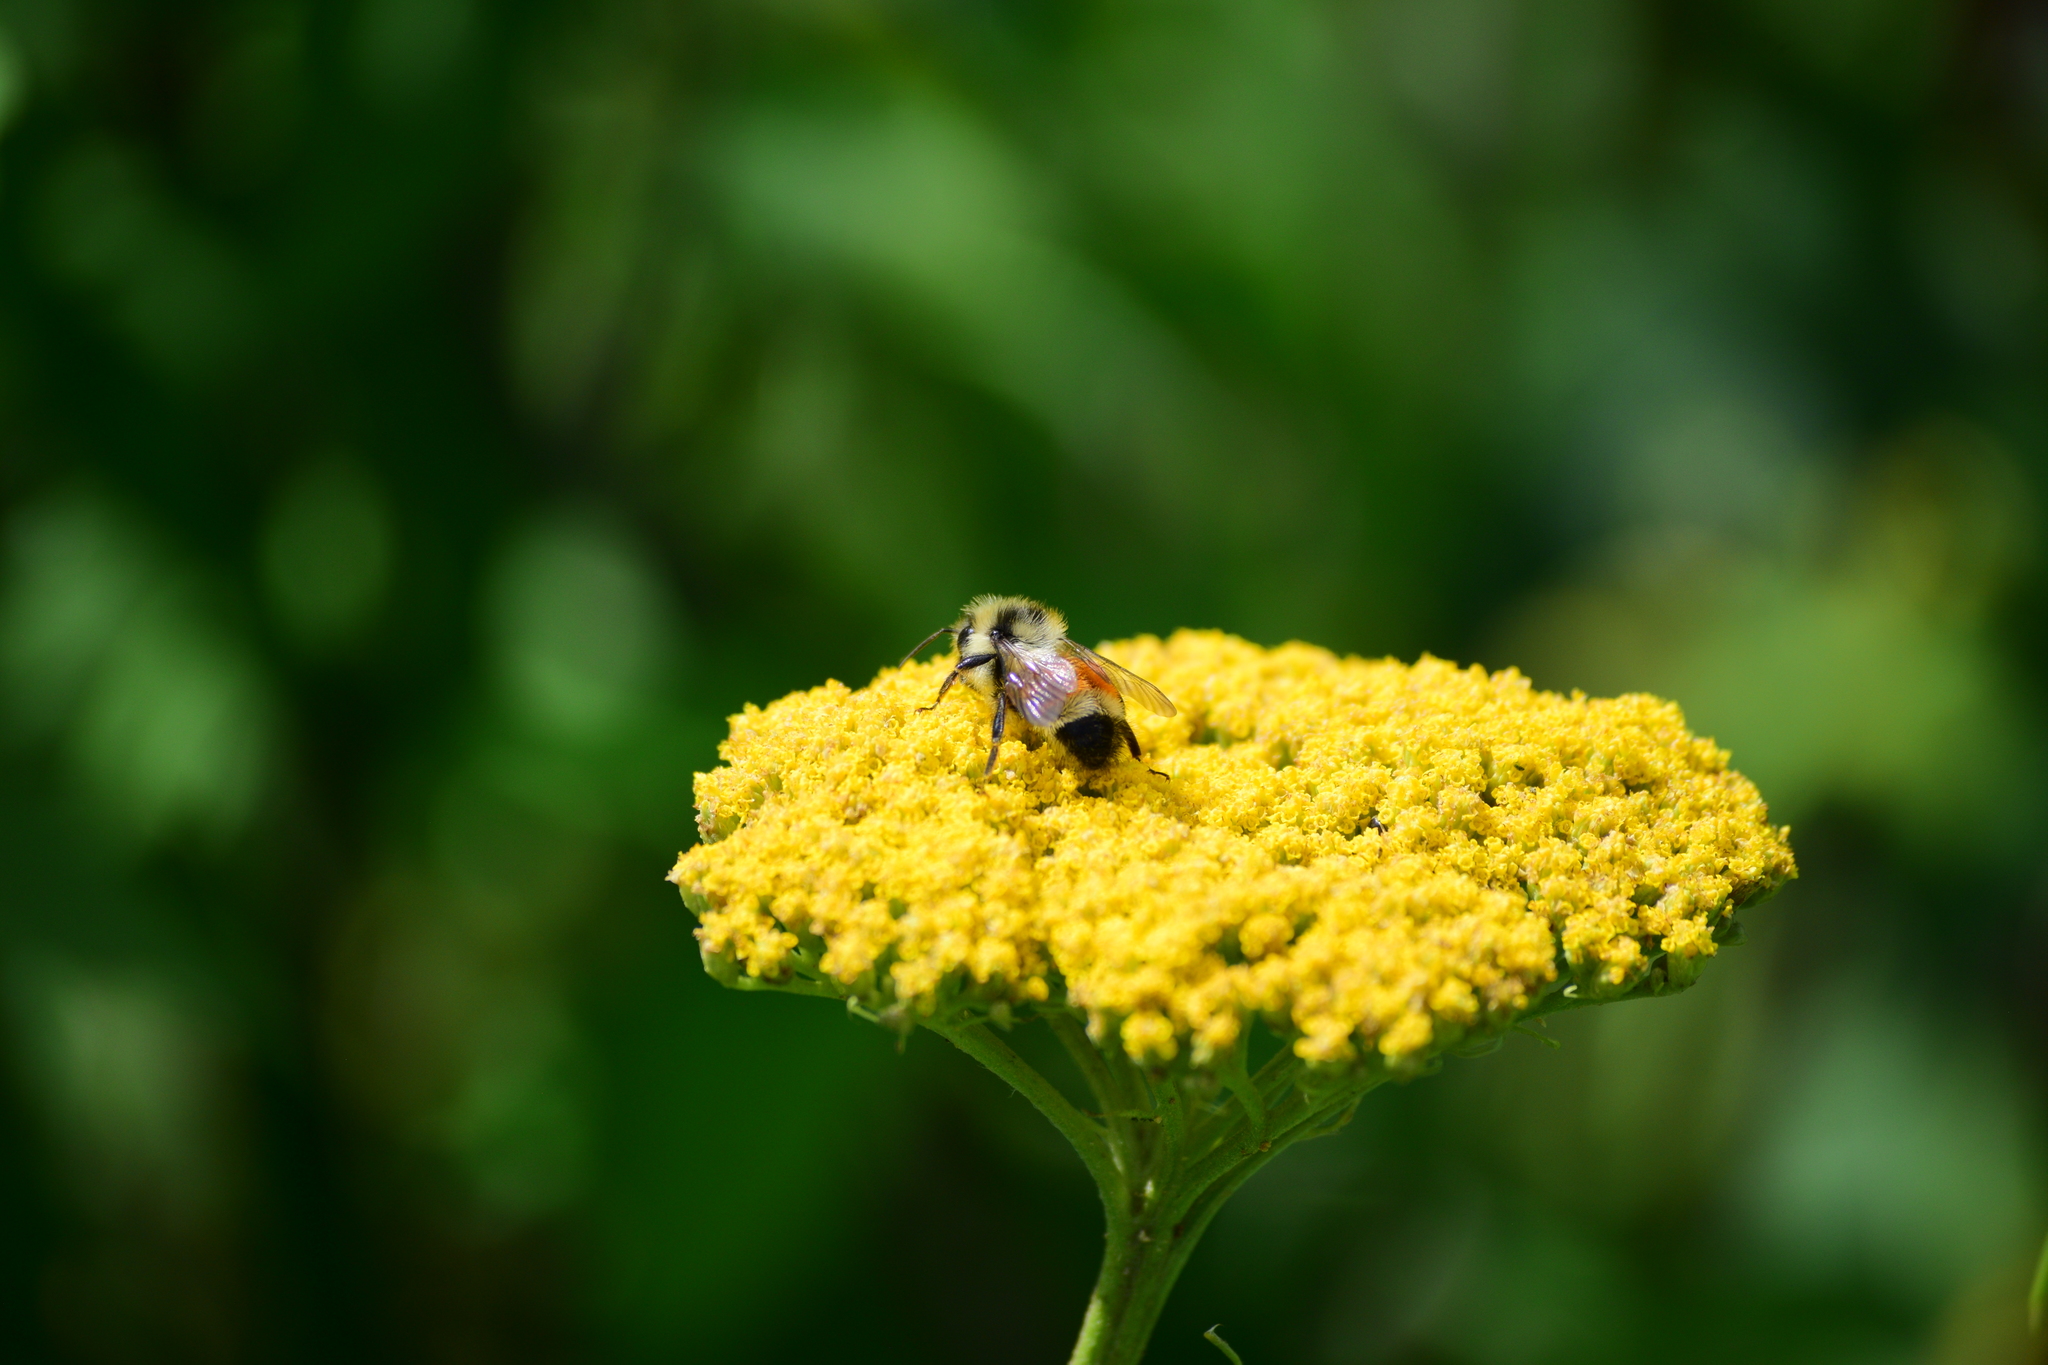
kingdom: Animalia
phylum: Arthropoda
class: Insecta
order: Hymenoptera
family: Apidae
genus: Bombus
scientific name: Bombus ternarius
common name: Tri-colored bumble bee
